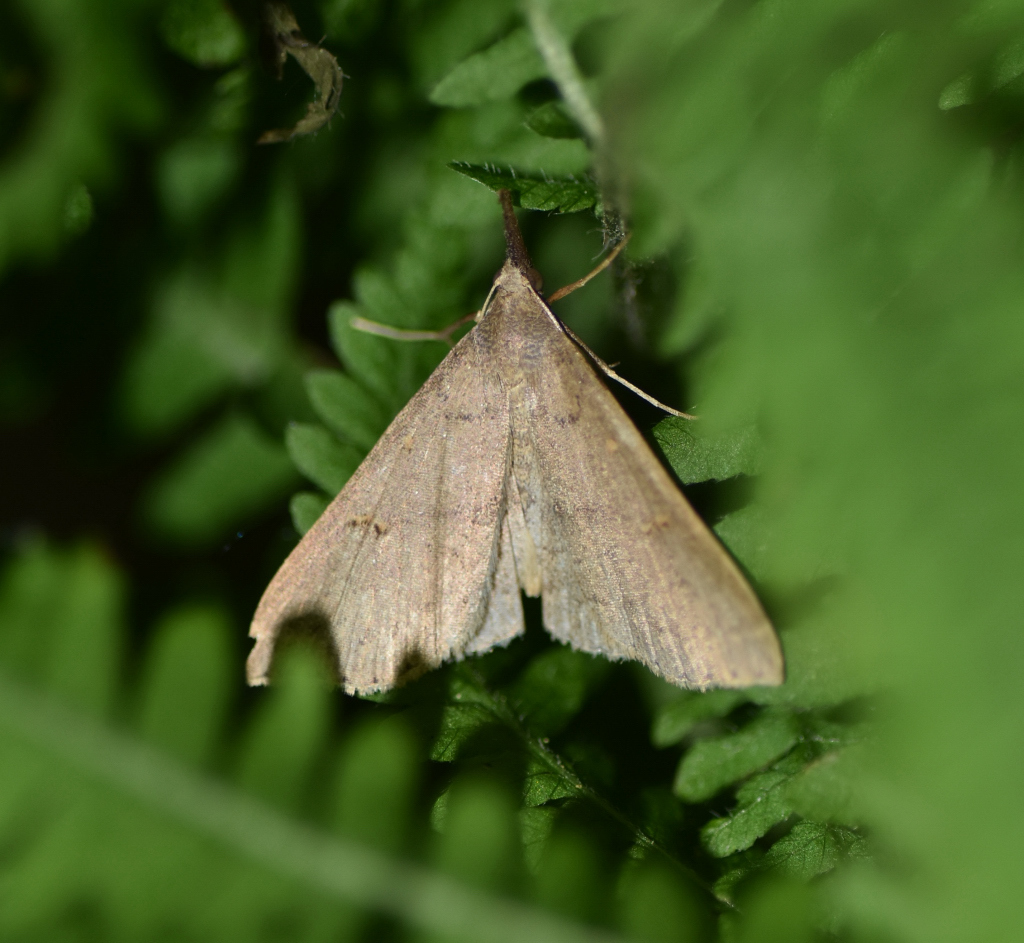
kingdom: Animalia
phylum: Arthropoda
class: Insecta
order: Lepidoptera
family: Erebidae
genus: Renia
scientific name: Renia flavipunctalis
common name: Yellow-spotted renia moth
